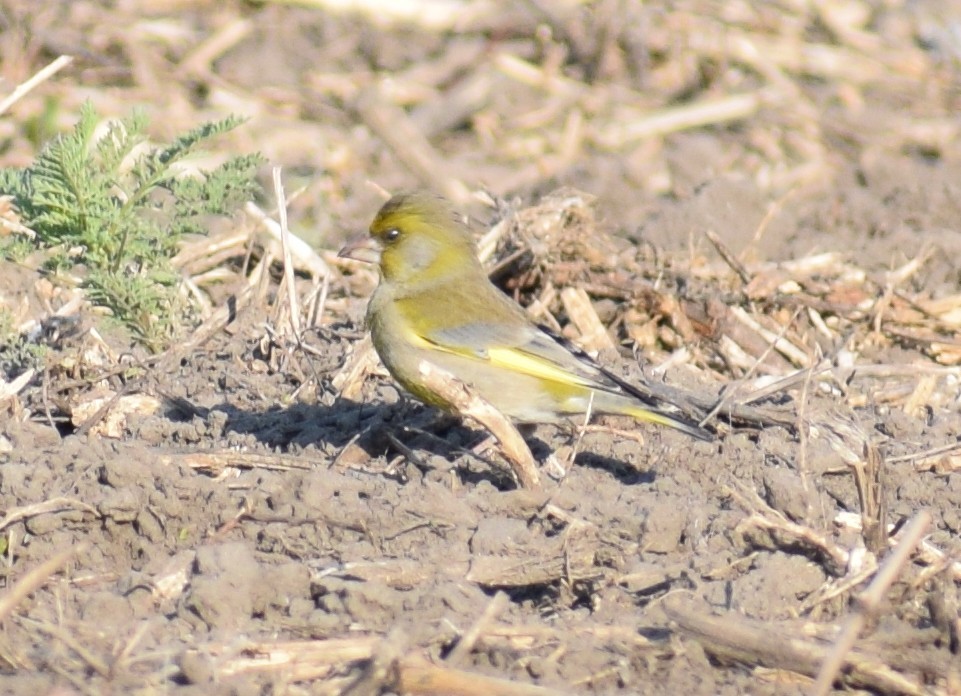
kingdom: Plantae
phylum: Tracheophyta
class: Liliopsida
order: Poales
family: Poaceae
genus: Chloris
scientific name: Chloris chloris
